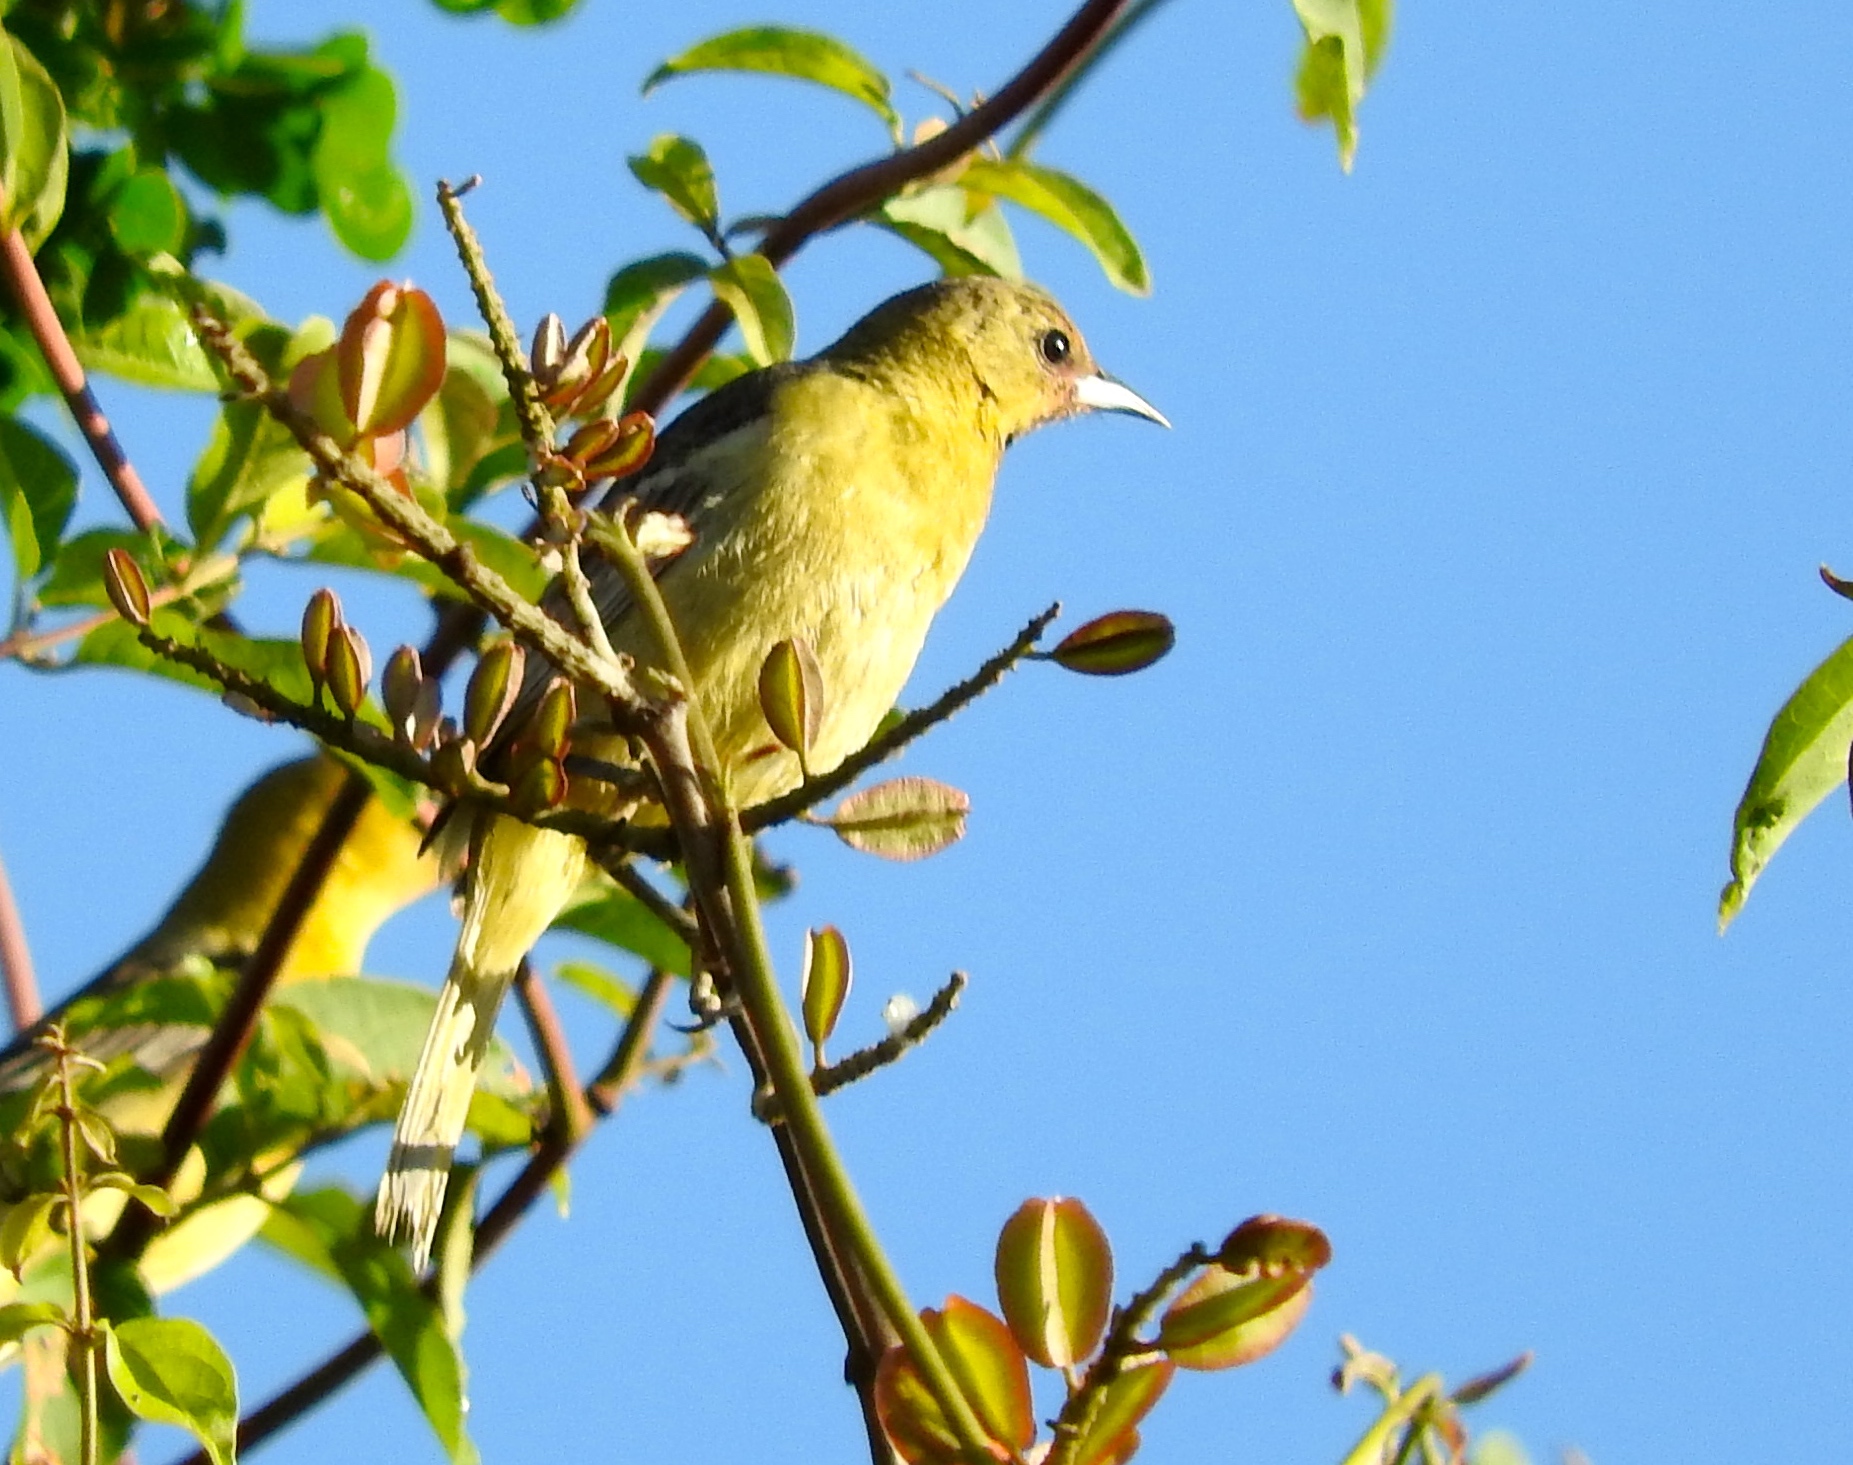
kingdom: Animalia
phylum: Chordata
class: Aves
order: Passeriformes
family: Icteridae
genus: Icterus
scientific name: Icterus
